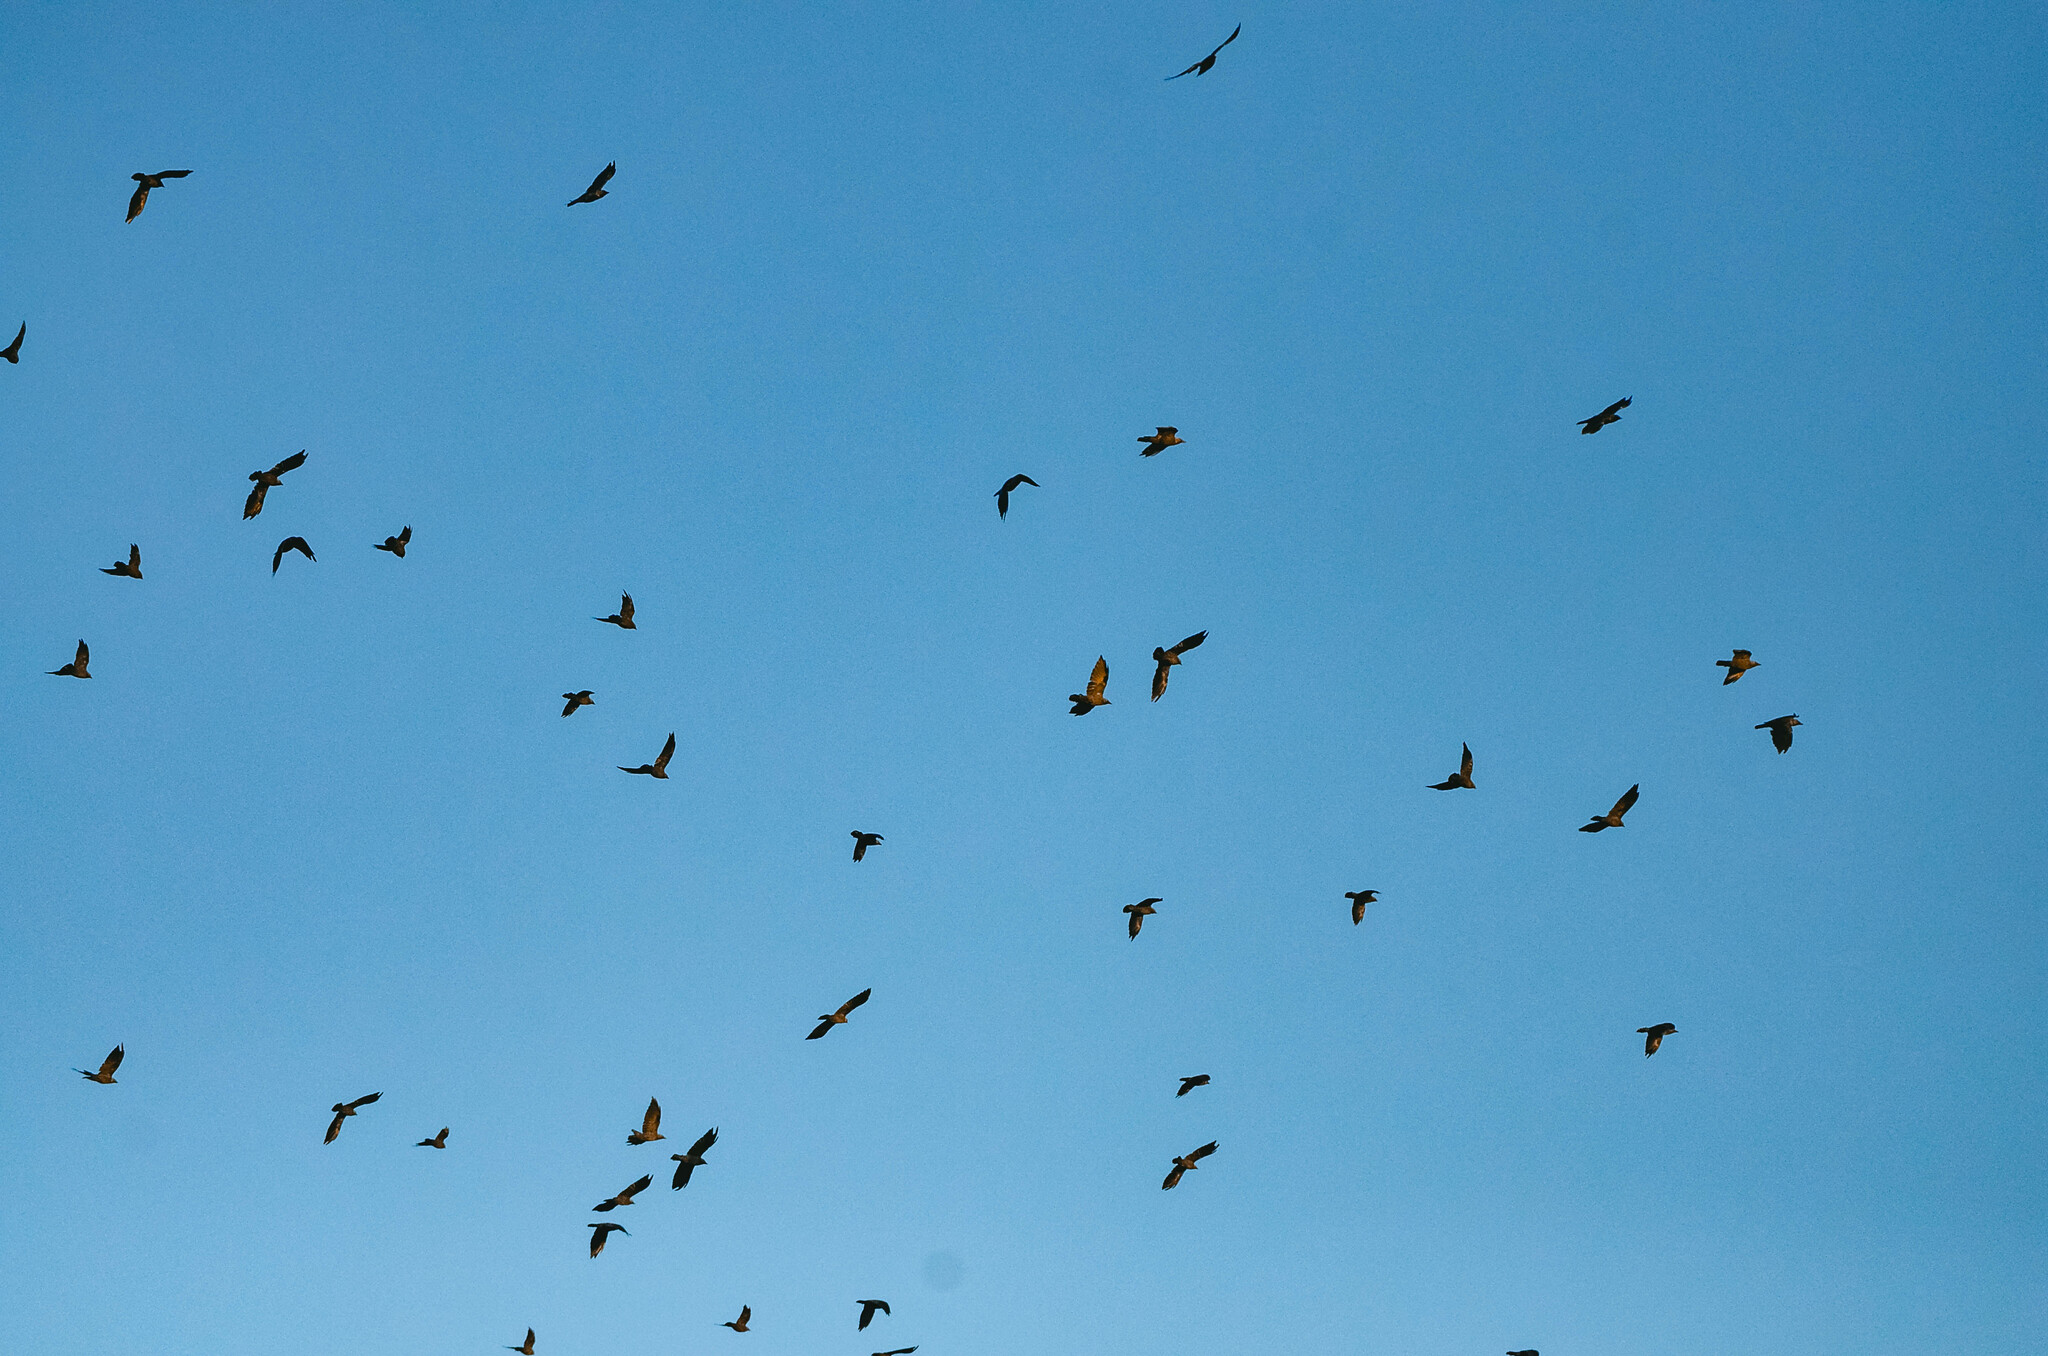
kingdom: Animalia
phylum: Chordata
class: Aves
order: Passeriformes
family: Corvidae
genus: Coloeus
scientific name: Coloeus monedula
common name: Western jackdaw
